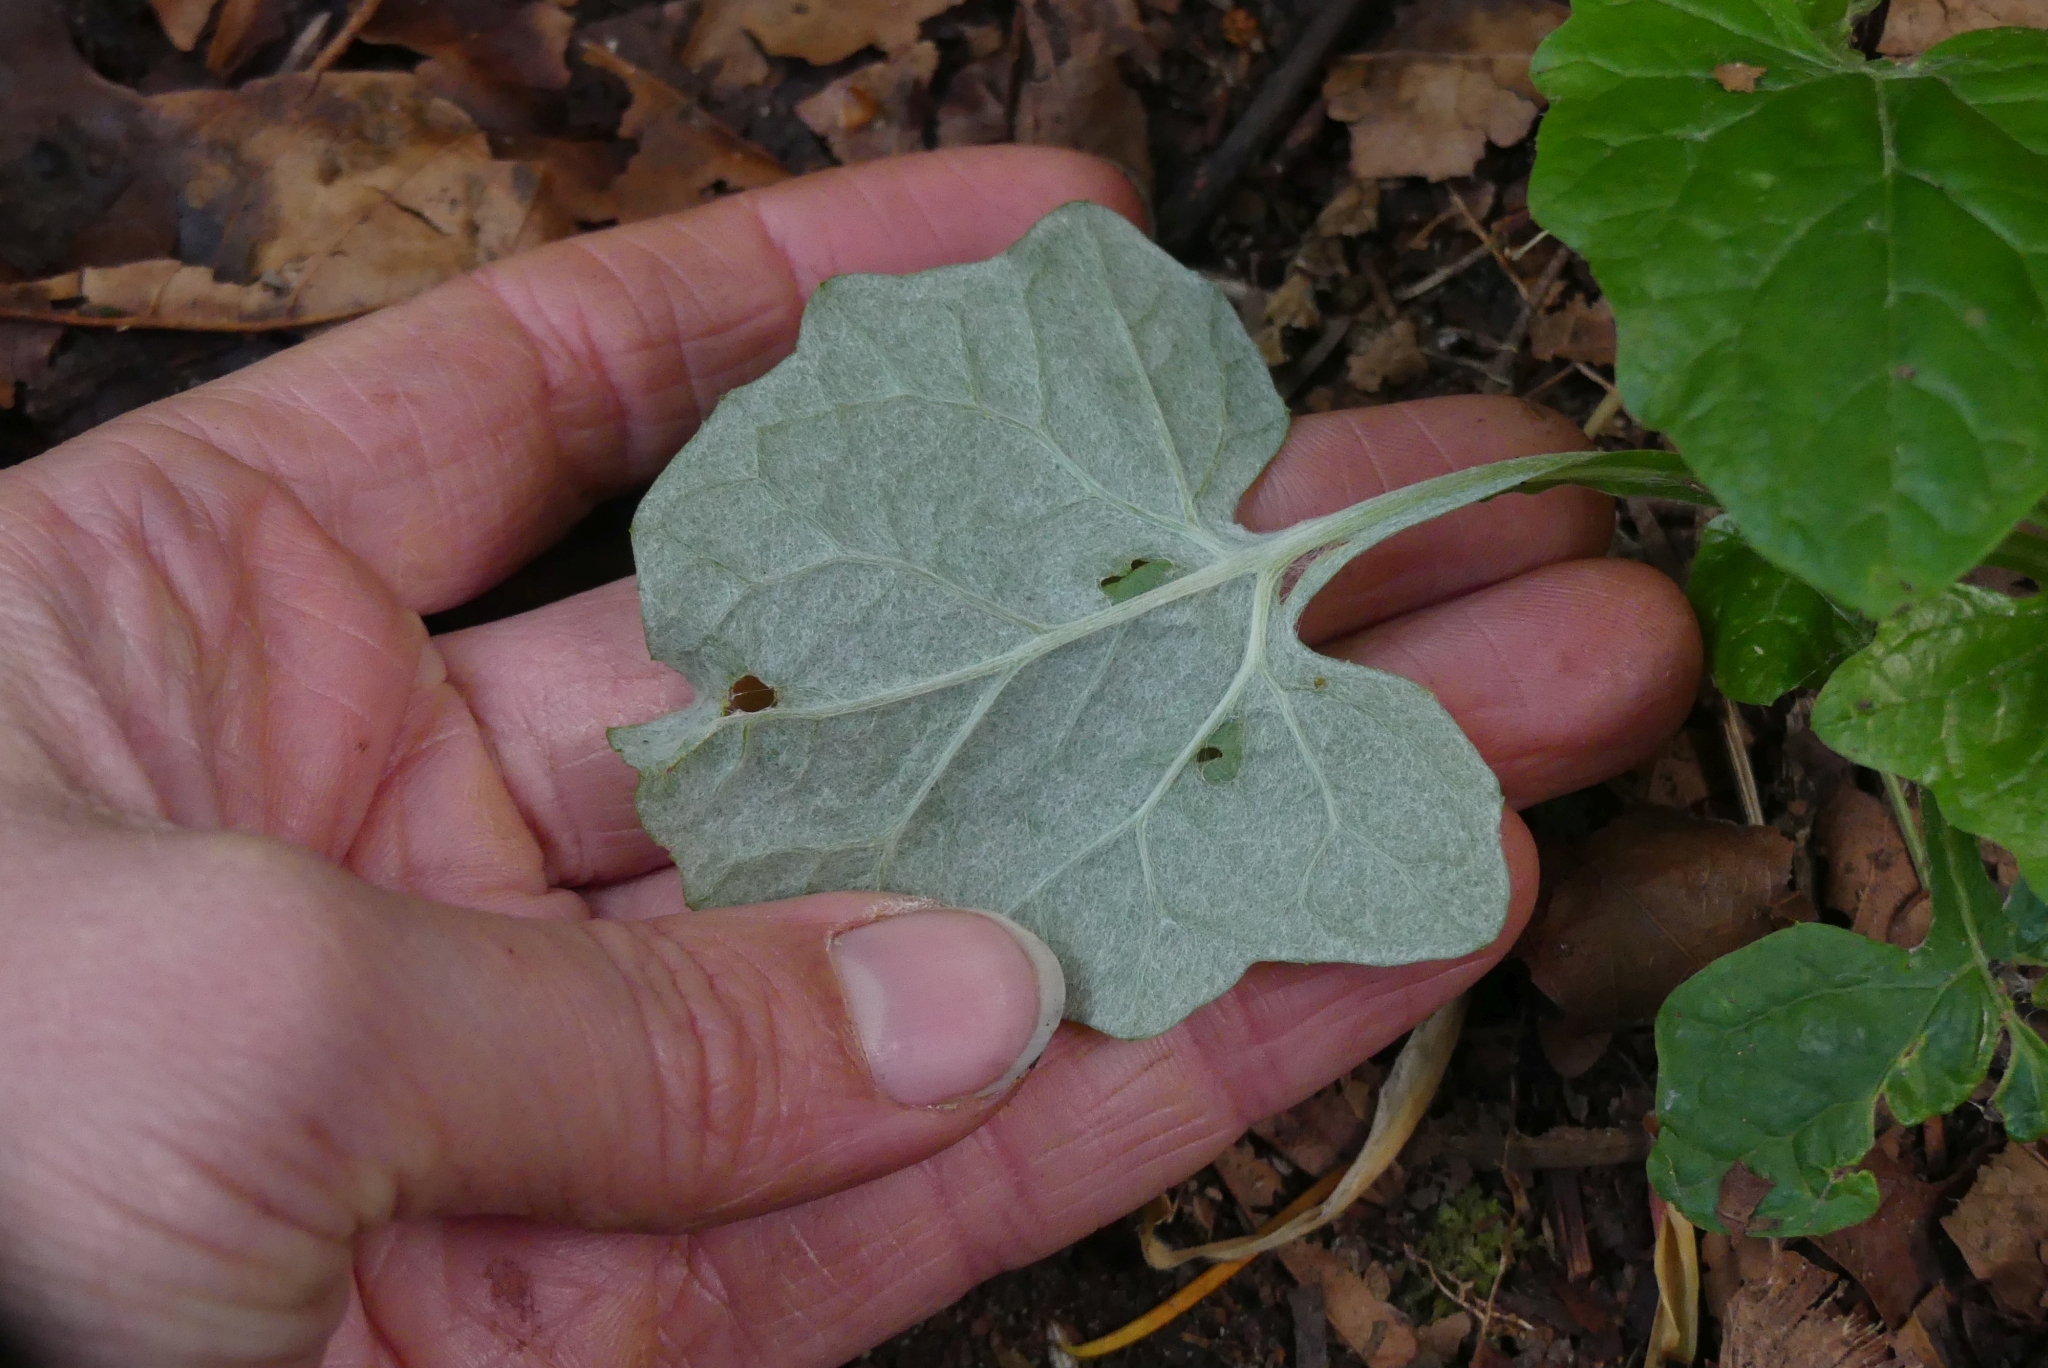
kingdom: Plantae
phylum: Tracheophyta
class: Magnoliopsida
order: Asterales
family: Asteraceae
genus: Adenocaulon
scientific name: Adenocaulon bicolor
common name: Trailplant
